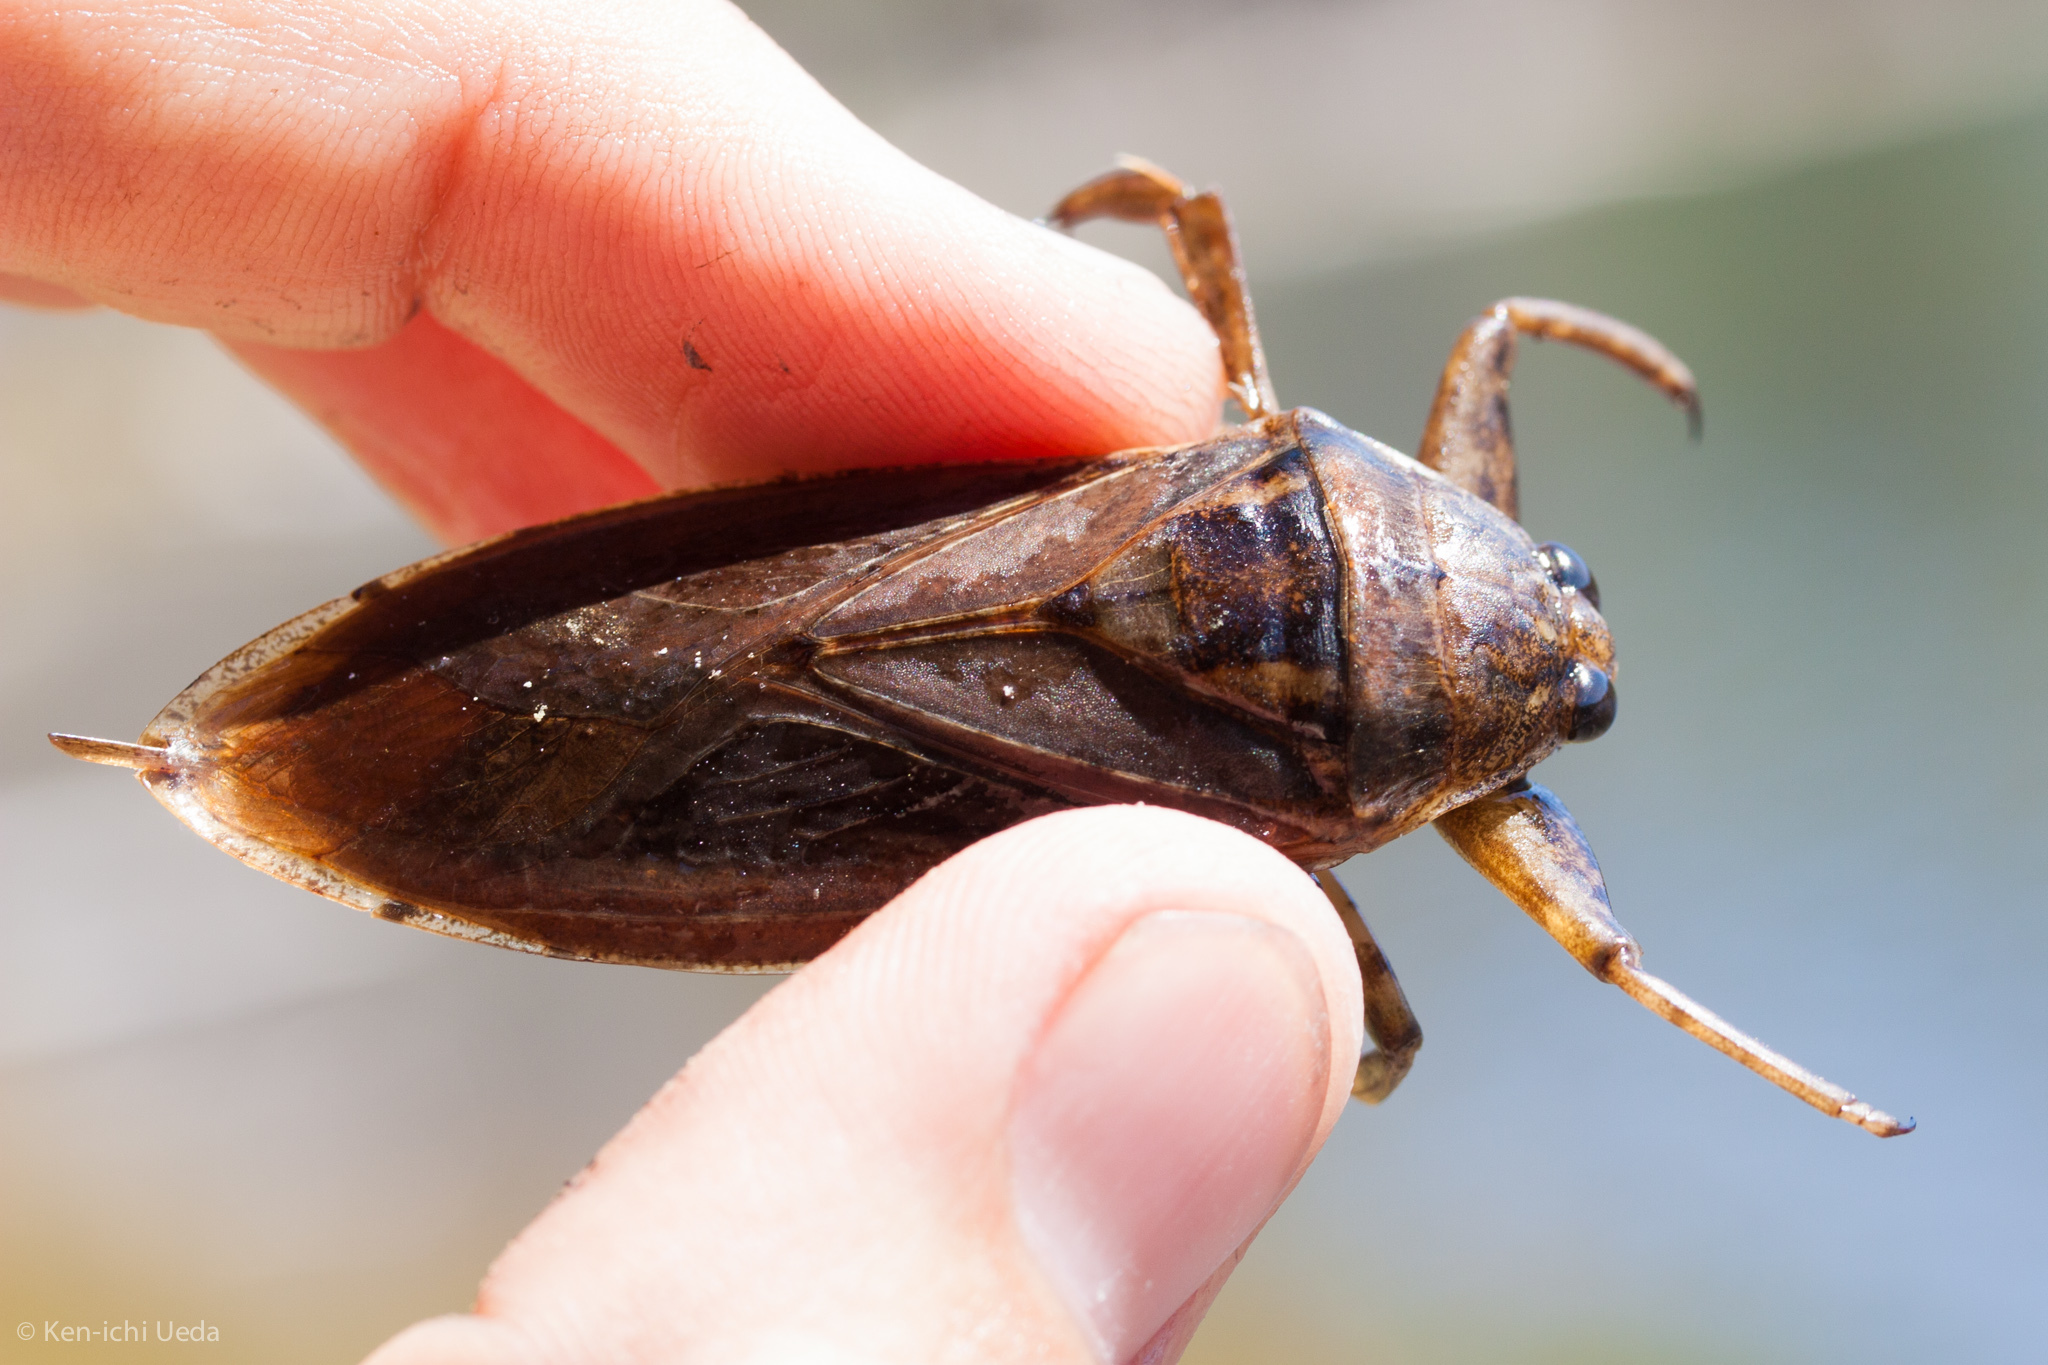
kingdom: Animalia
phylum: Arthropoda
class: Insecta
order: Hemiptera
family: Belostomatidae
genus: Lethocerus
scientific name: Lethocerus americanus
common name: Giant water bug
